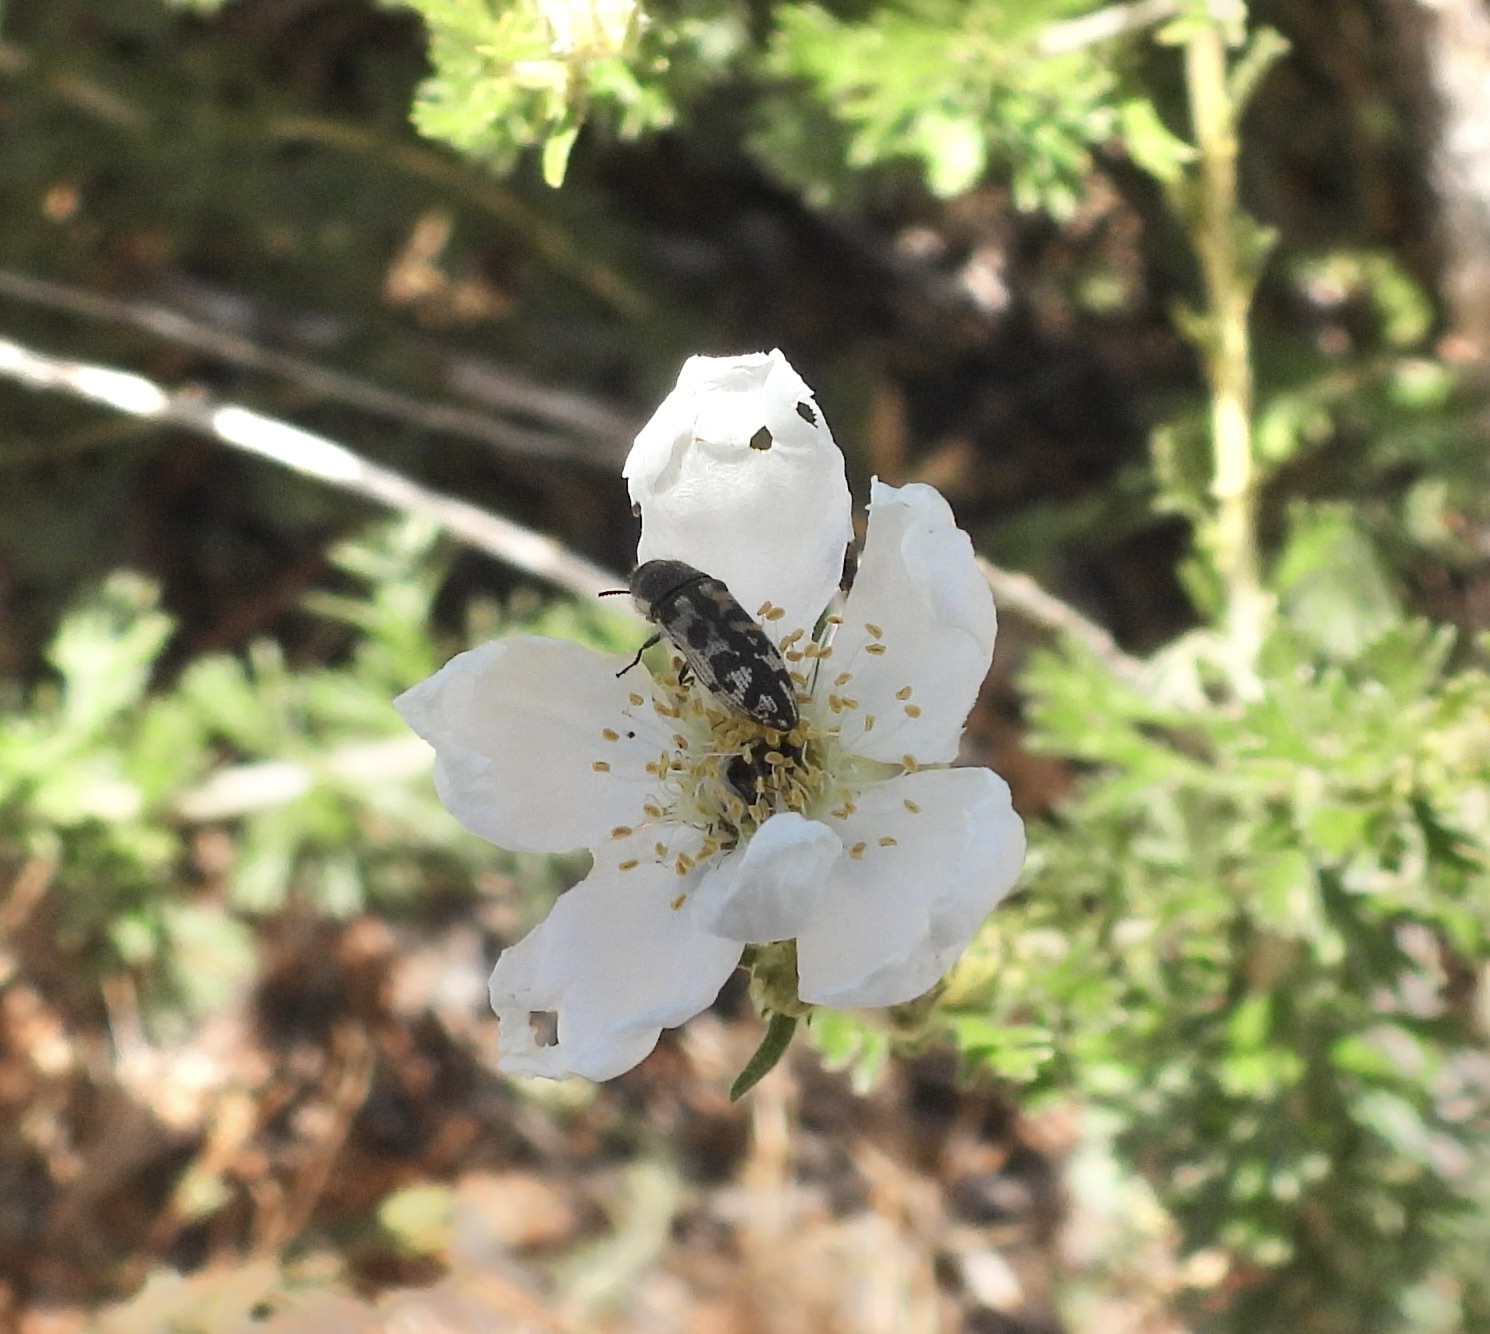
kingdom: Animalia
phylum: Arthropoda
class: Insecta
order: Coleoptera
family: Buprestidae
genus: Acmaeodera
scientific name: Acmaeodera variegata
